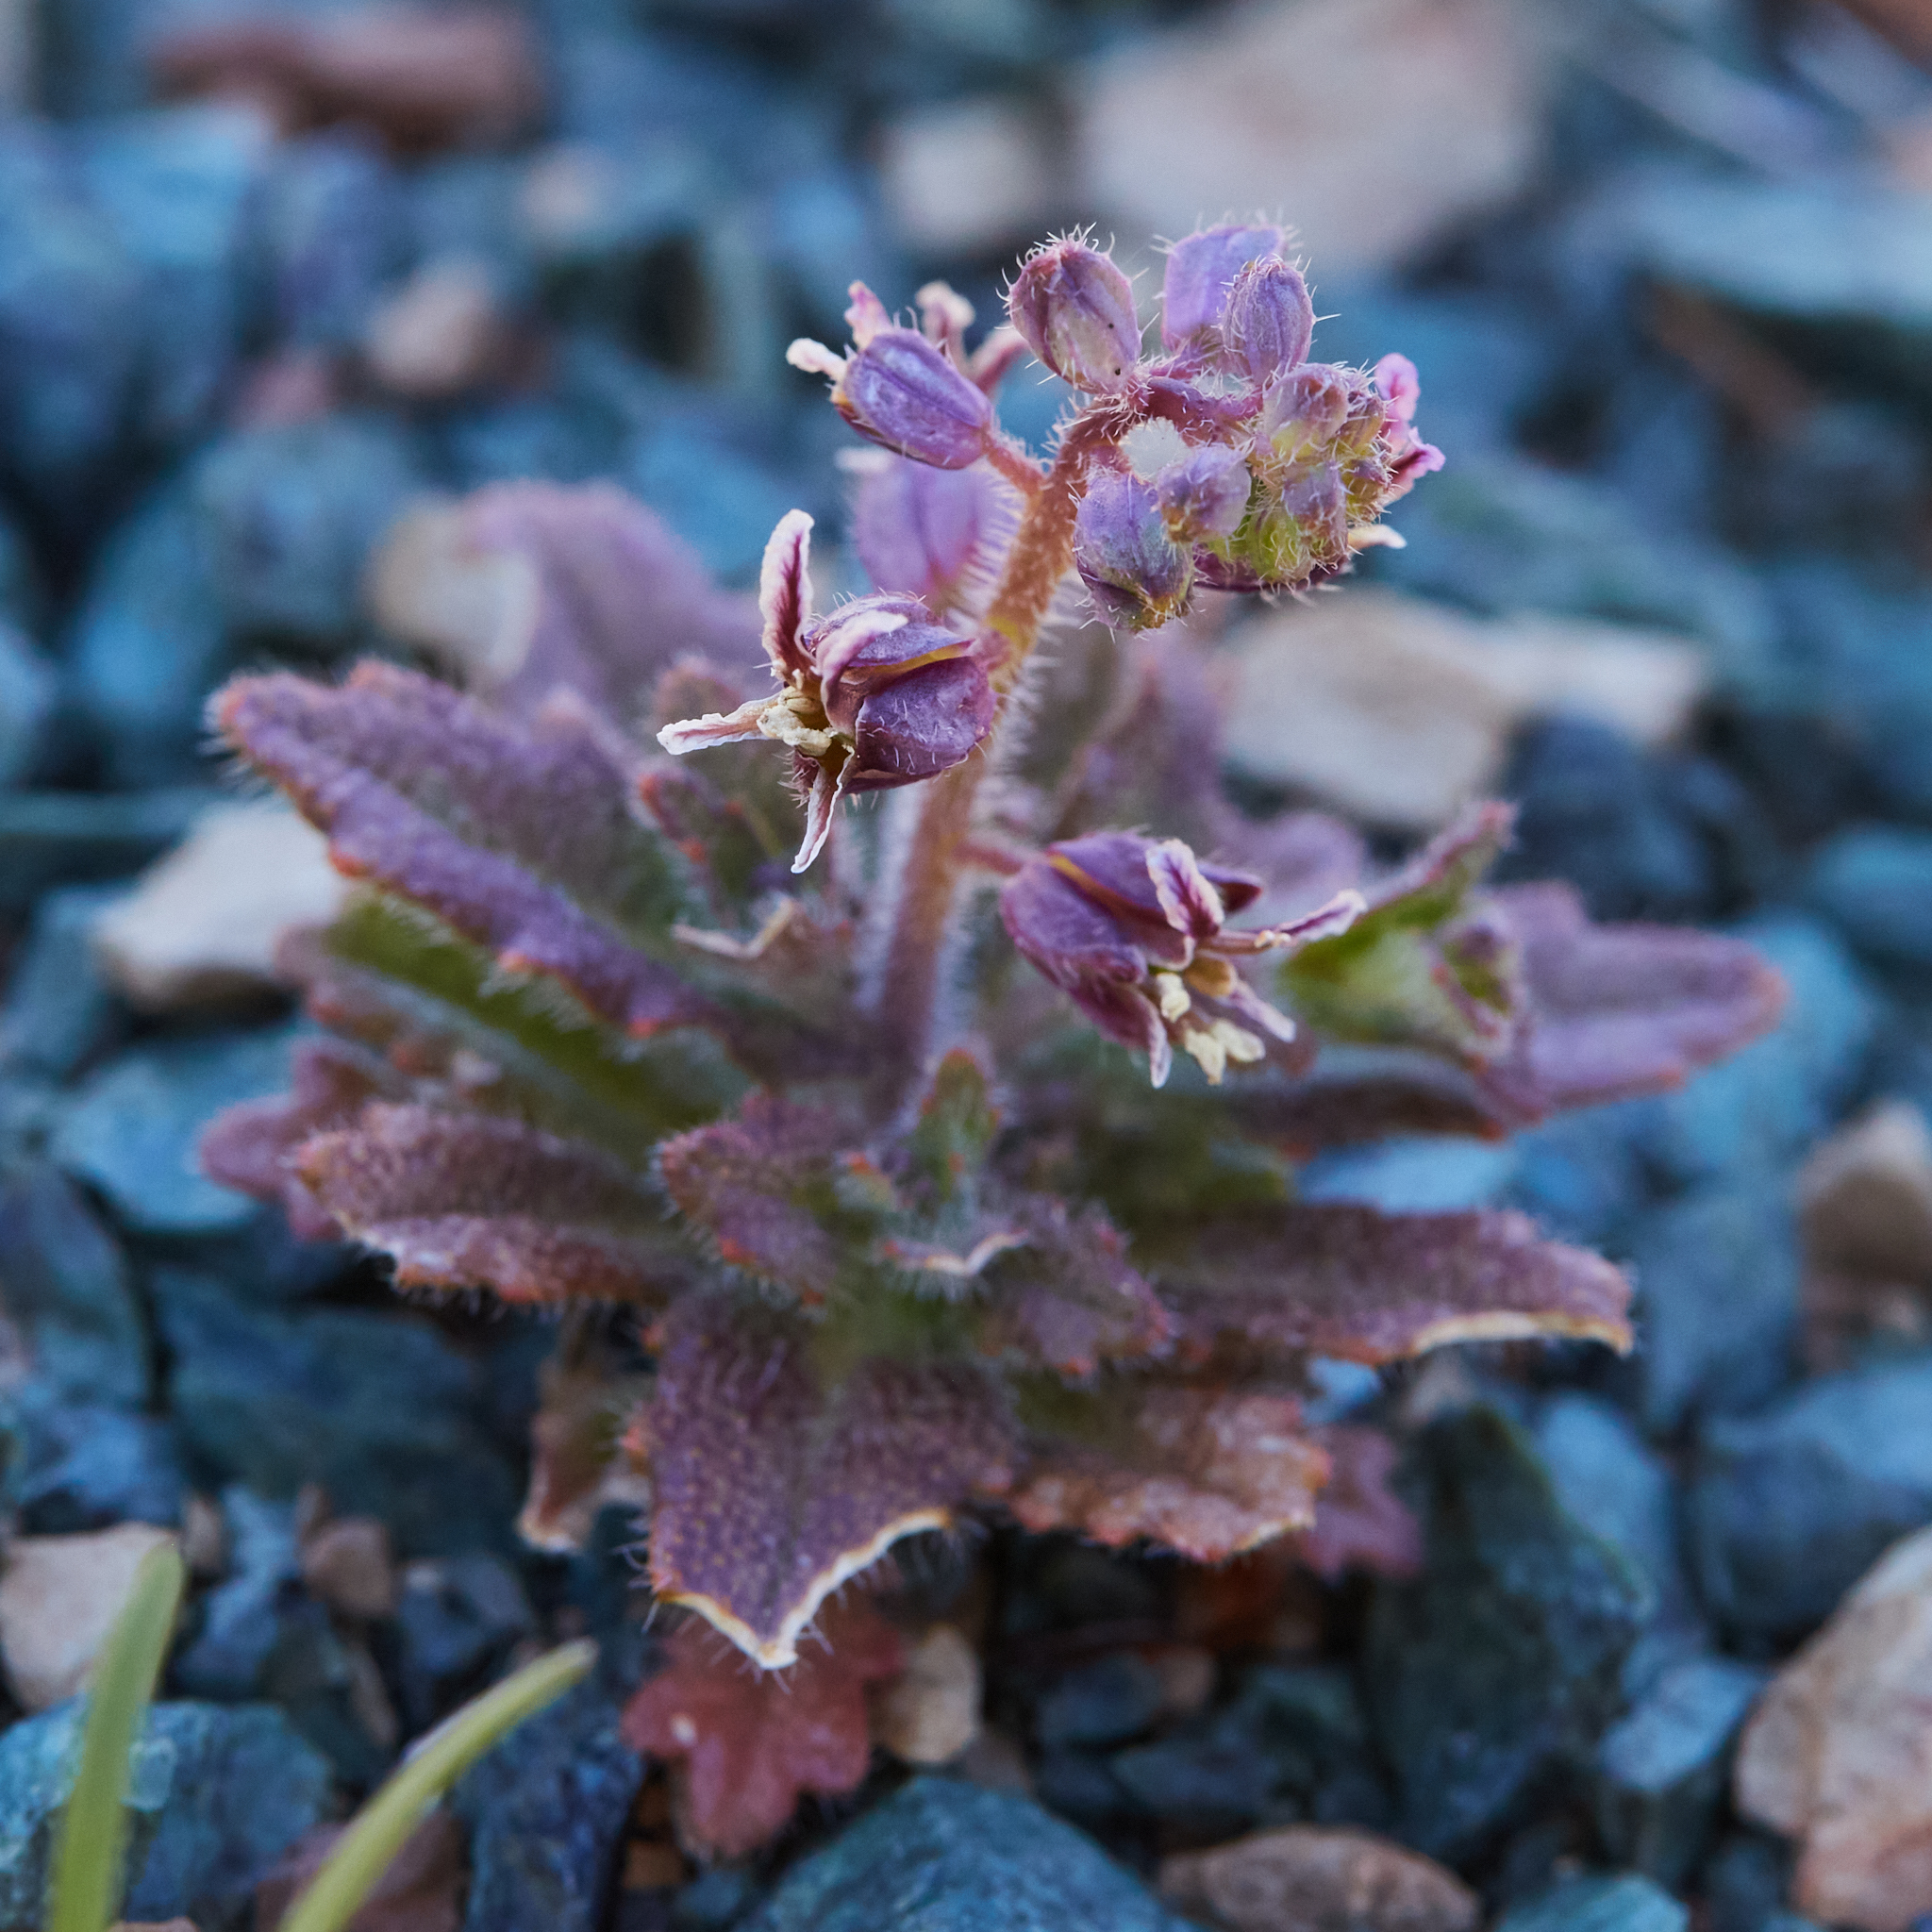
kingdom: Plantae
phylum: Tracheophyta
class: Magnoliopsida
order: Brassicales
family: Brassicaceae
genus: Streptanthus
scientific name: Streptanthus glandulosus
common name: Jewel-flower
